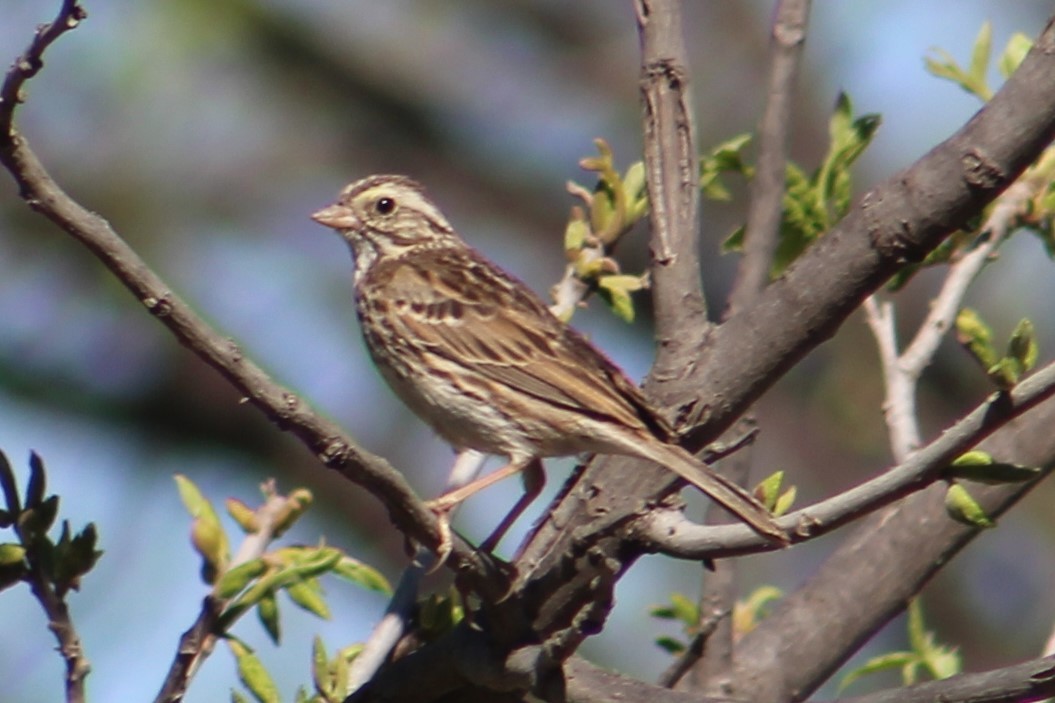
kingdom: Animalia
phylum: Chordata
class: Aves
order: Passeriformes
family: Passerellidae
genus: Passerculus
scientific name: Passerculus sandwichensis
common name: Savannah sparrow
